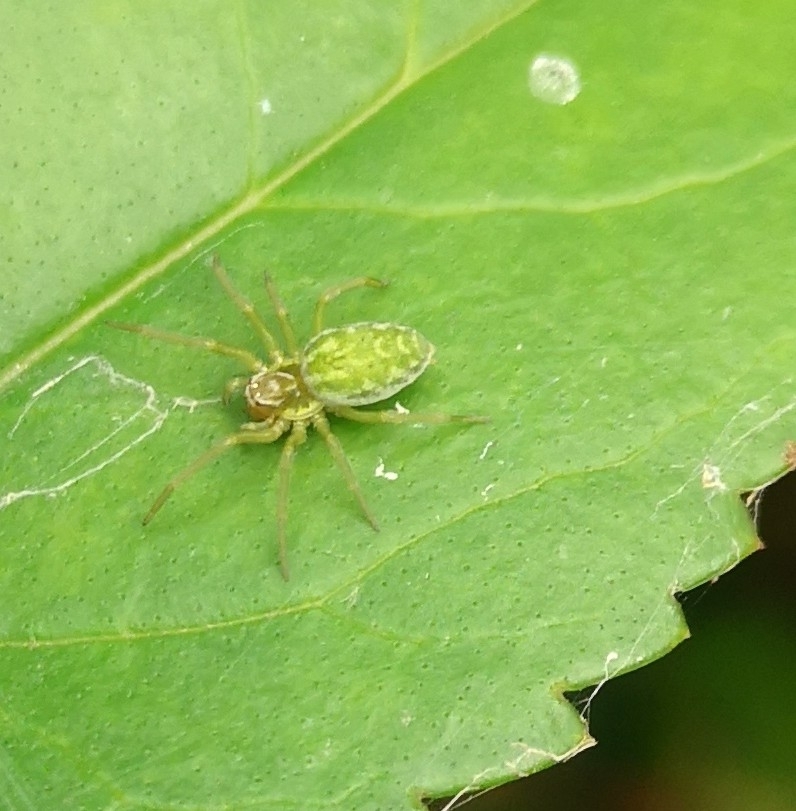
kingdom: Animalia
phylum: Arthropoda
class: Arachnida
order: Araneae
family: Dictynidae
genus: Nigma
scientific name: Nigma walckenaeri
